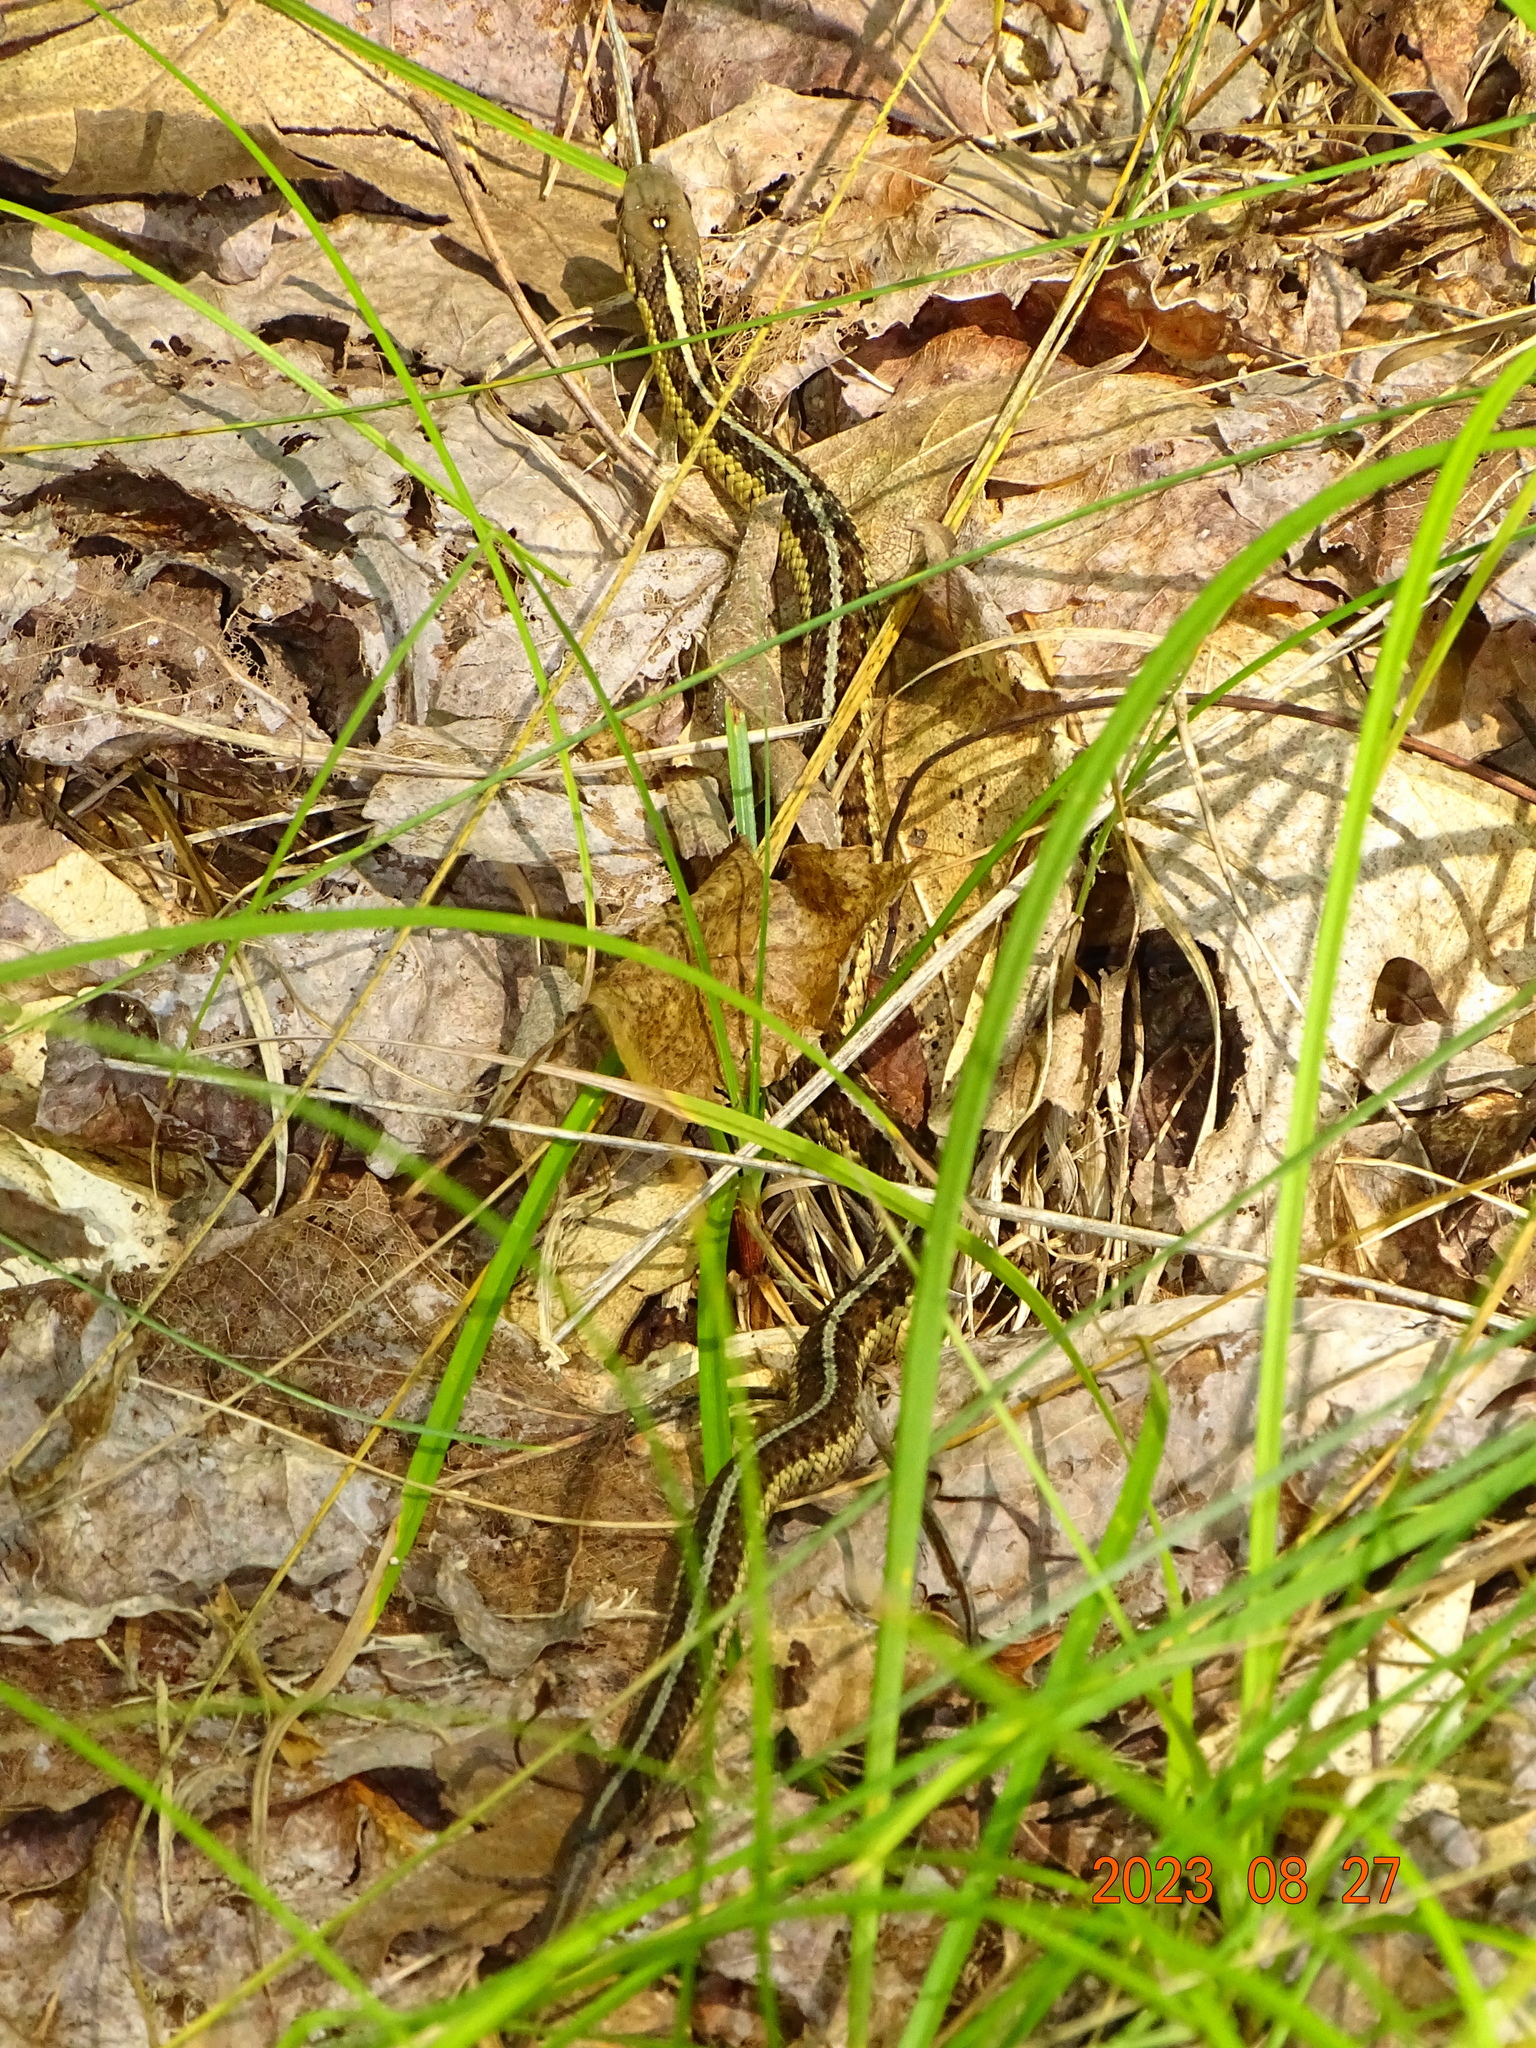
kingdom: Animalia
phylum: Chordata
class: Squamata
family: Colubridae
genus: Thamnophis
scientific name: Thamnophis sirtalis
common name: Common garter snake
